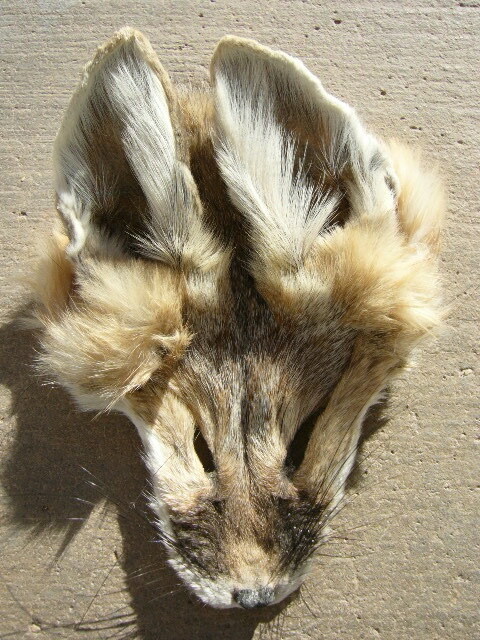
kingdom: Animalia
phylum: Chordata
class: Mammalia
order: Carnivora
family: Canidae
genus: Vulpes
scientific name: Vulpes macrotis
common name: Kit fox
